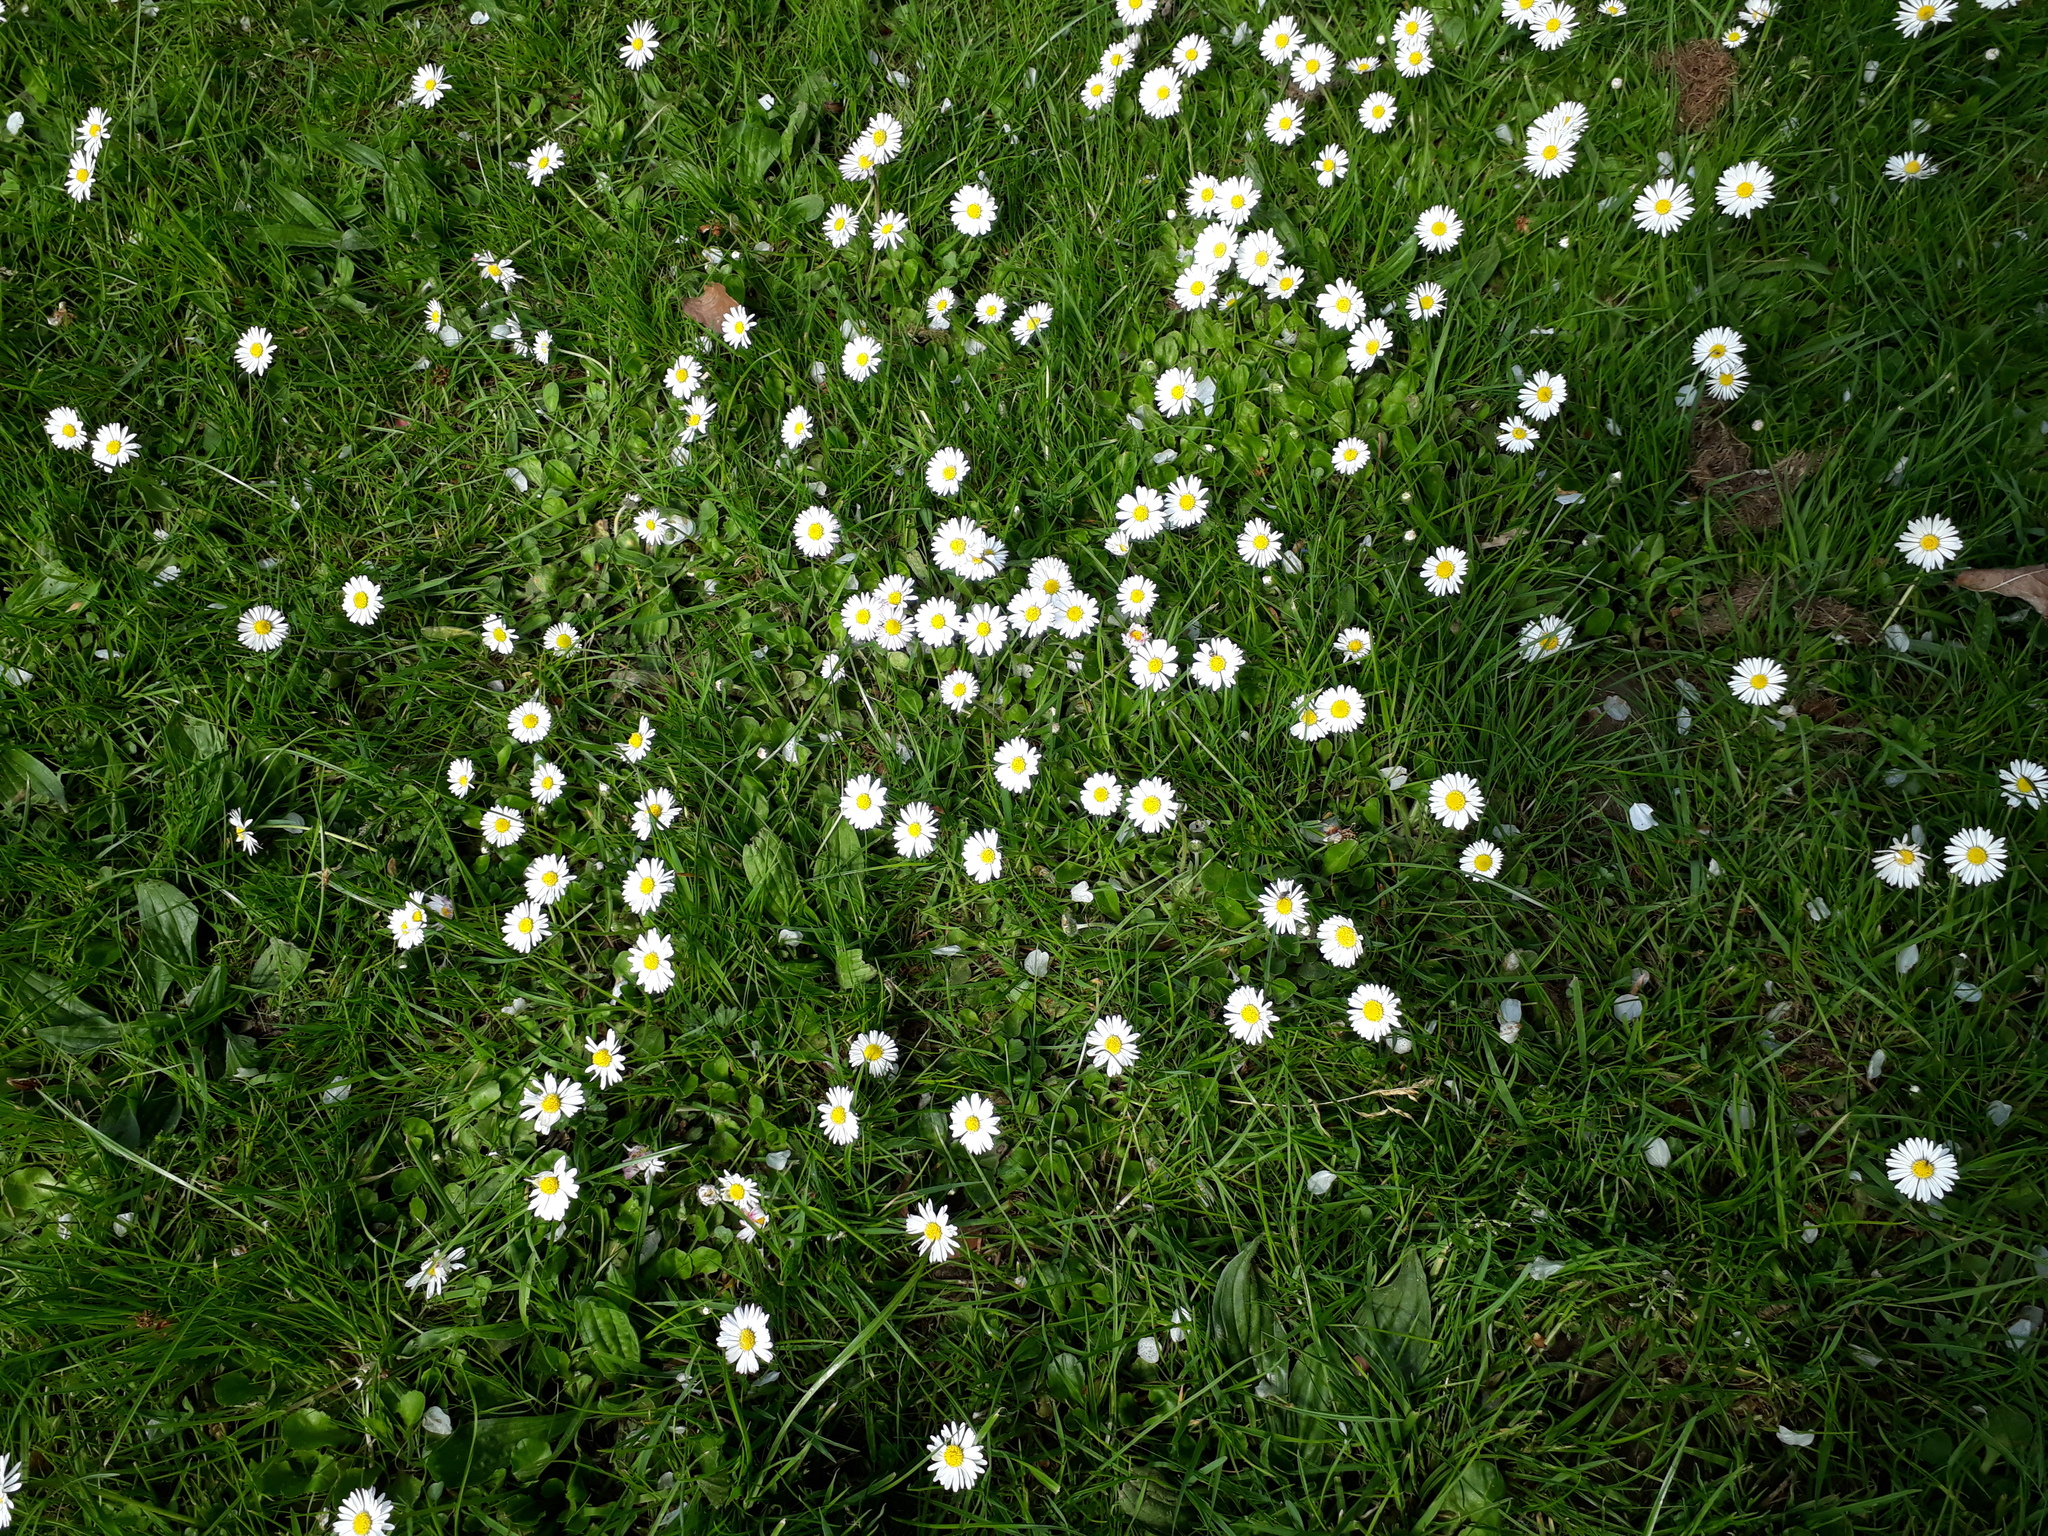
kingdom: Plantae
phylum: Tracheophyta
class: Magnoliopsida
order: Asterales
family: Asteraceae
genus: Bellis
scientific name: Bellis perennis
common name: Lawndaisy
